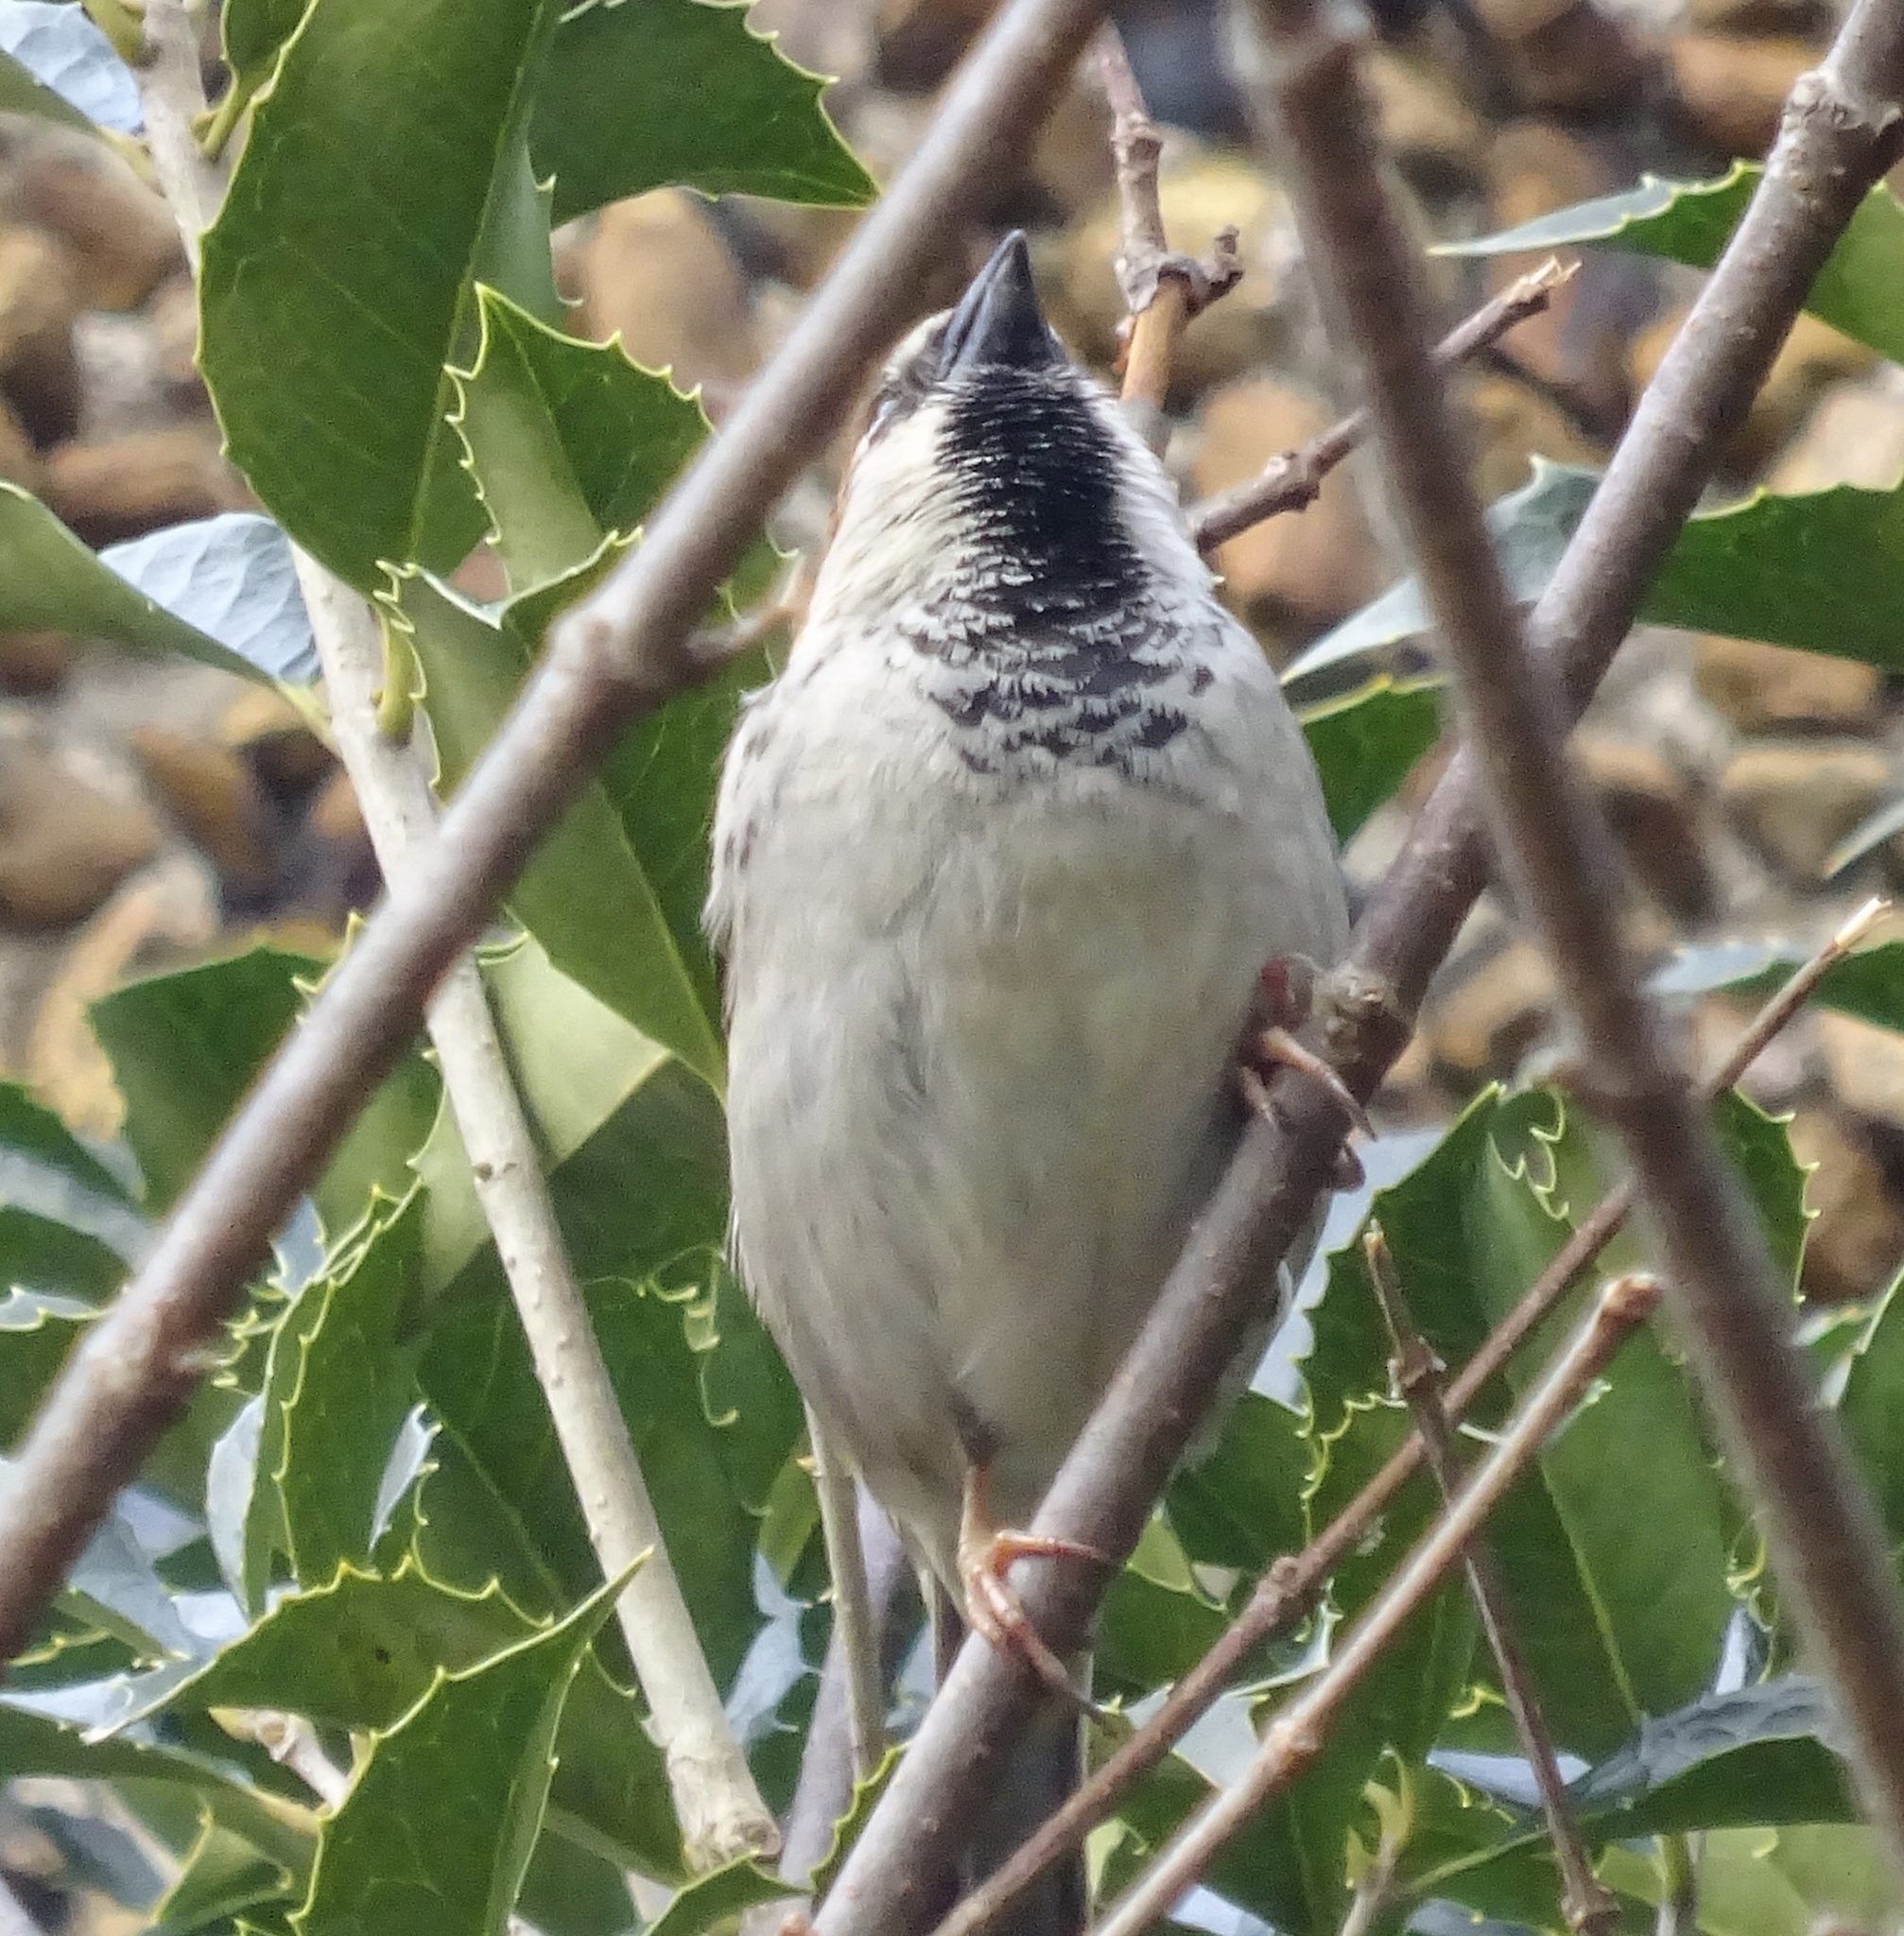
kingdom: Animalia
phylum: Chordata
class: Aves
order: Passeriformes
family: Passeridae
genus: Passer
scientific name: Passer domesticus
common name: House sparrow
